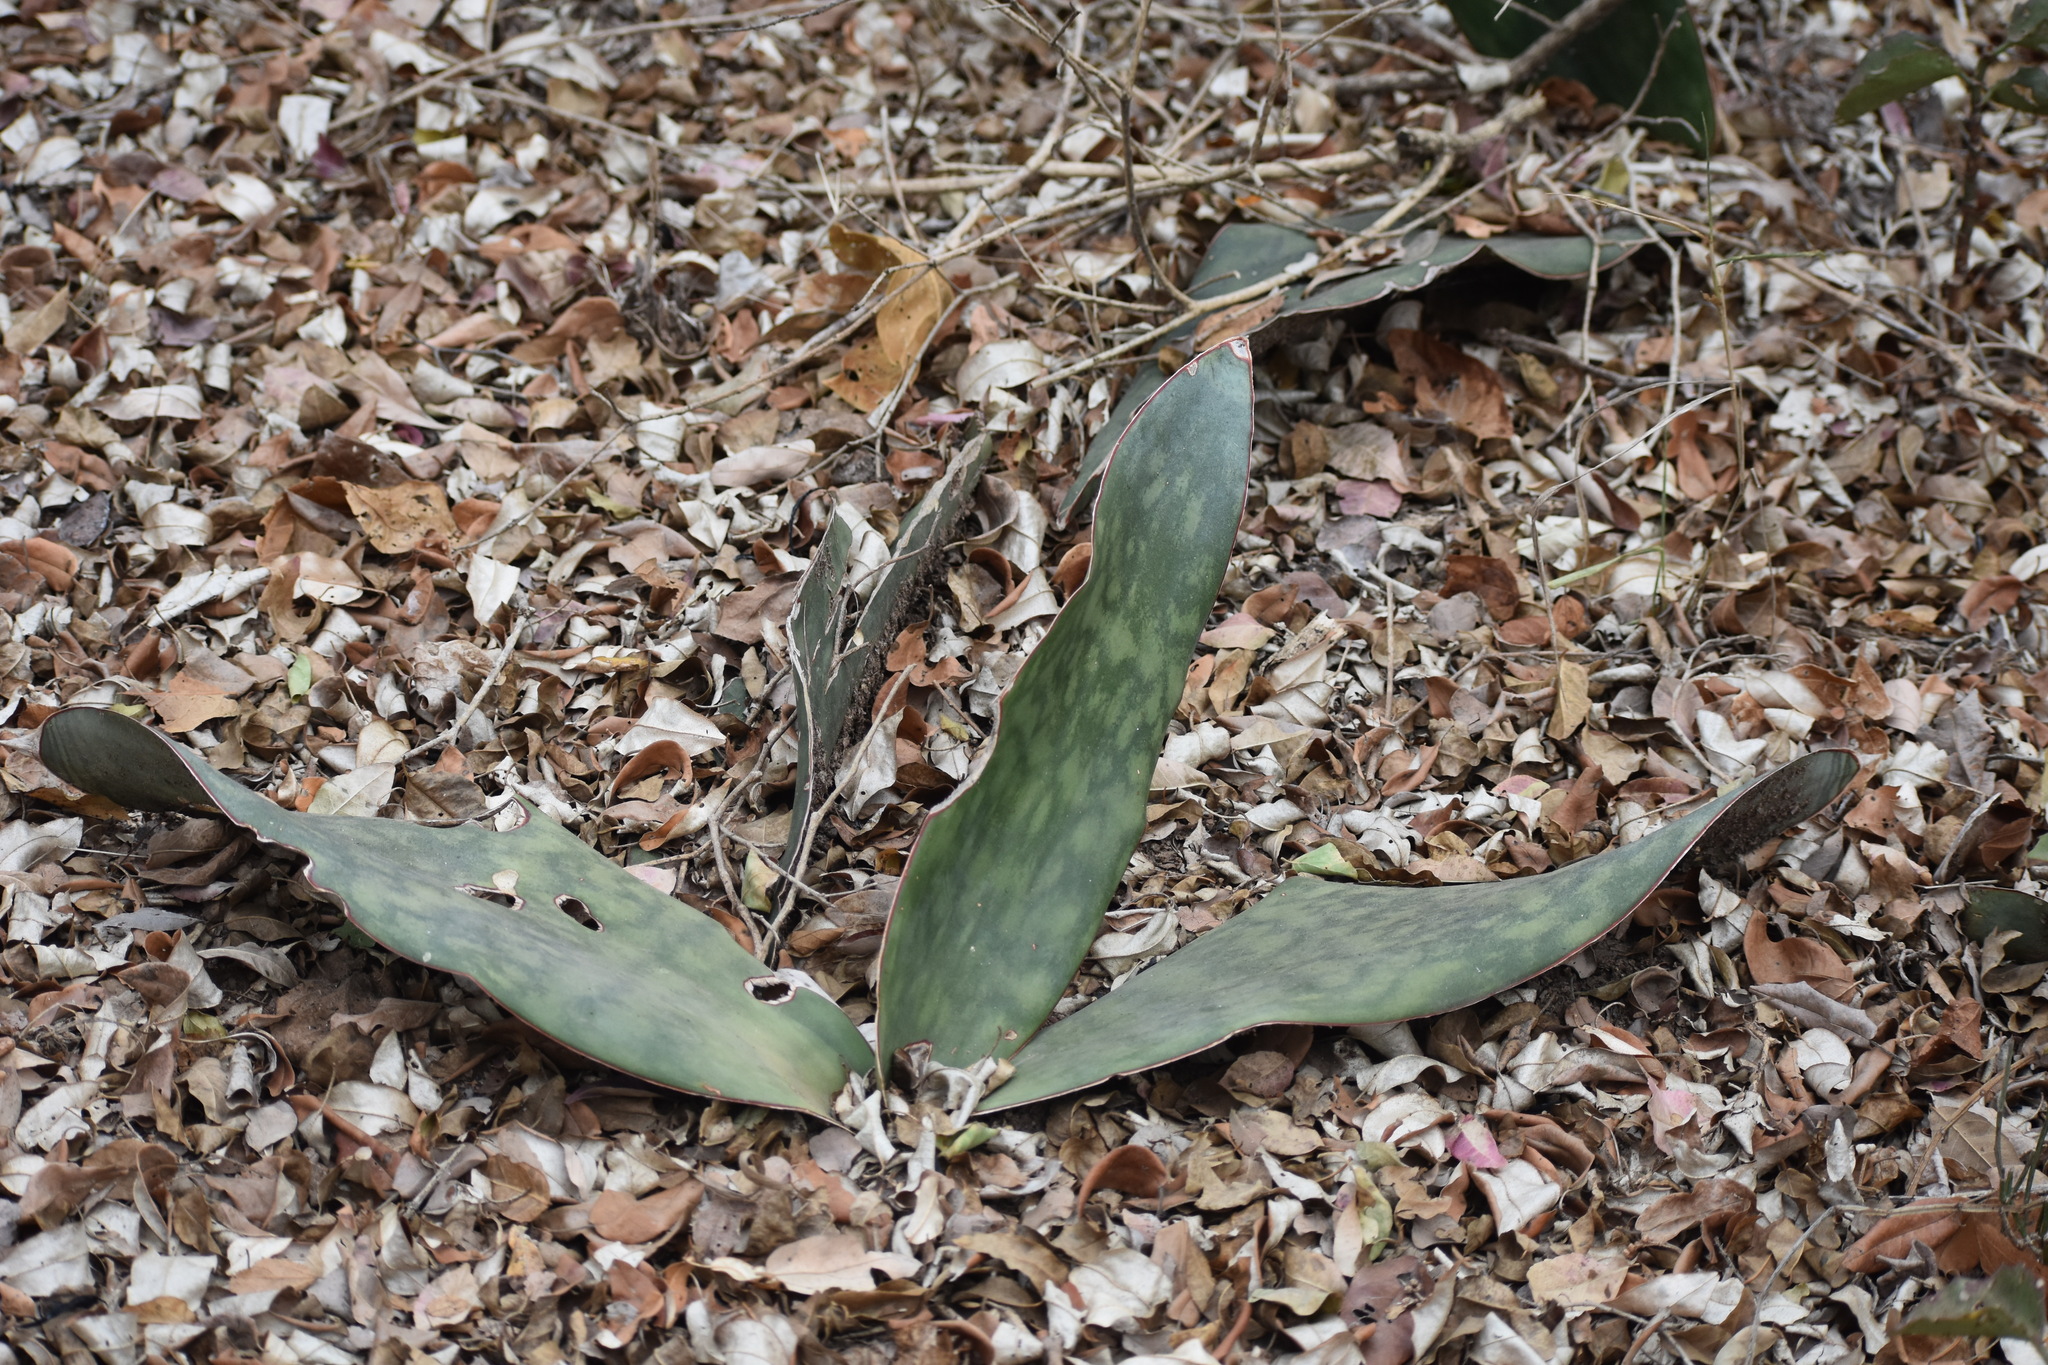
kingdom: Plantae
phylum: Tracheophyta
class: Liliopsida
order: Asparagales
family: Asparagaceae
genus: Dracaena
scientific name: Dracaena hyacinthoides
